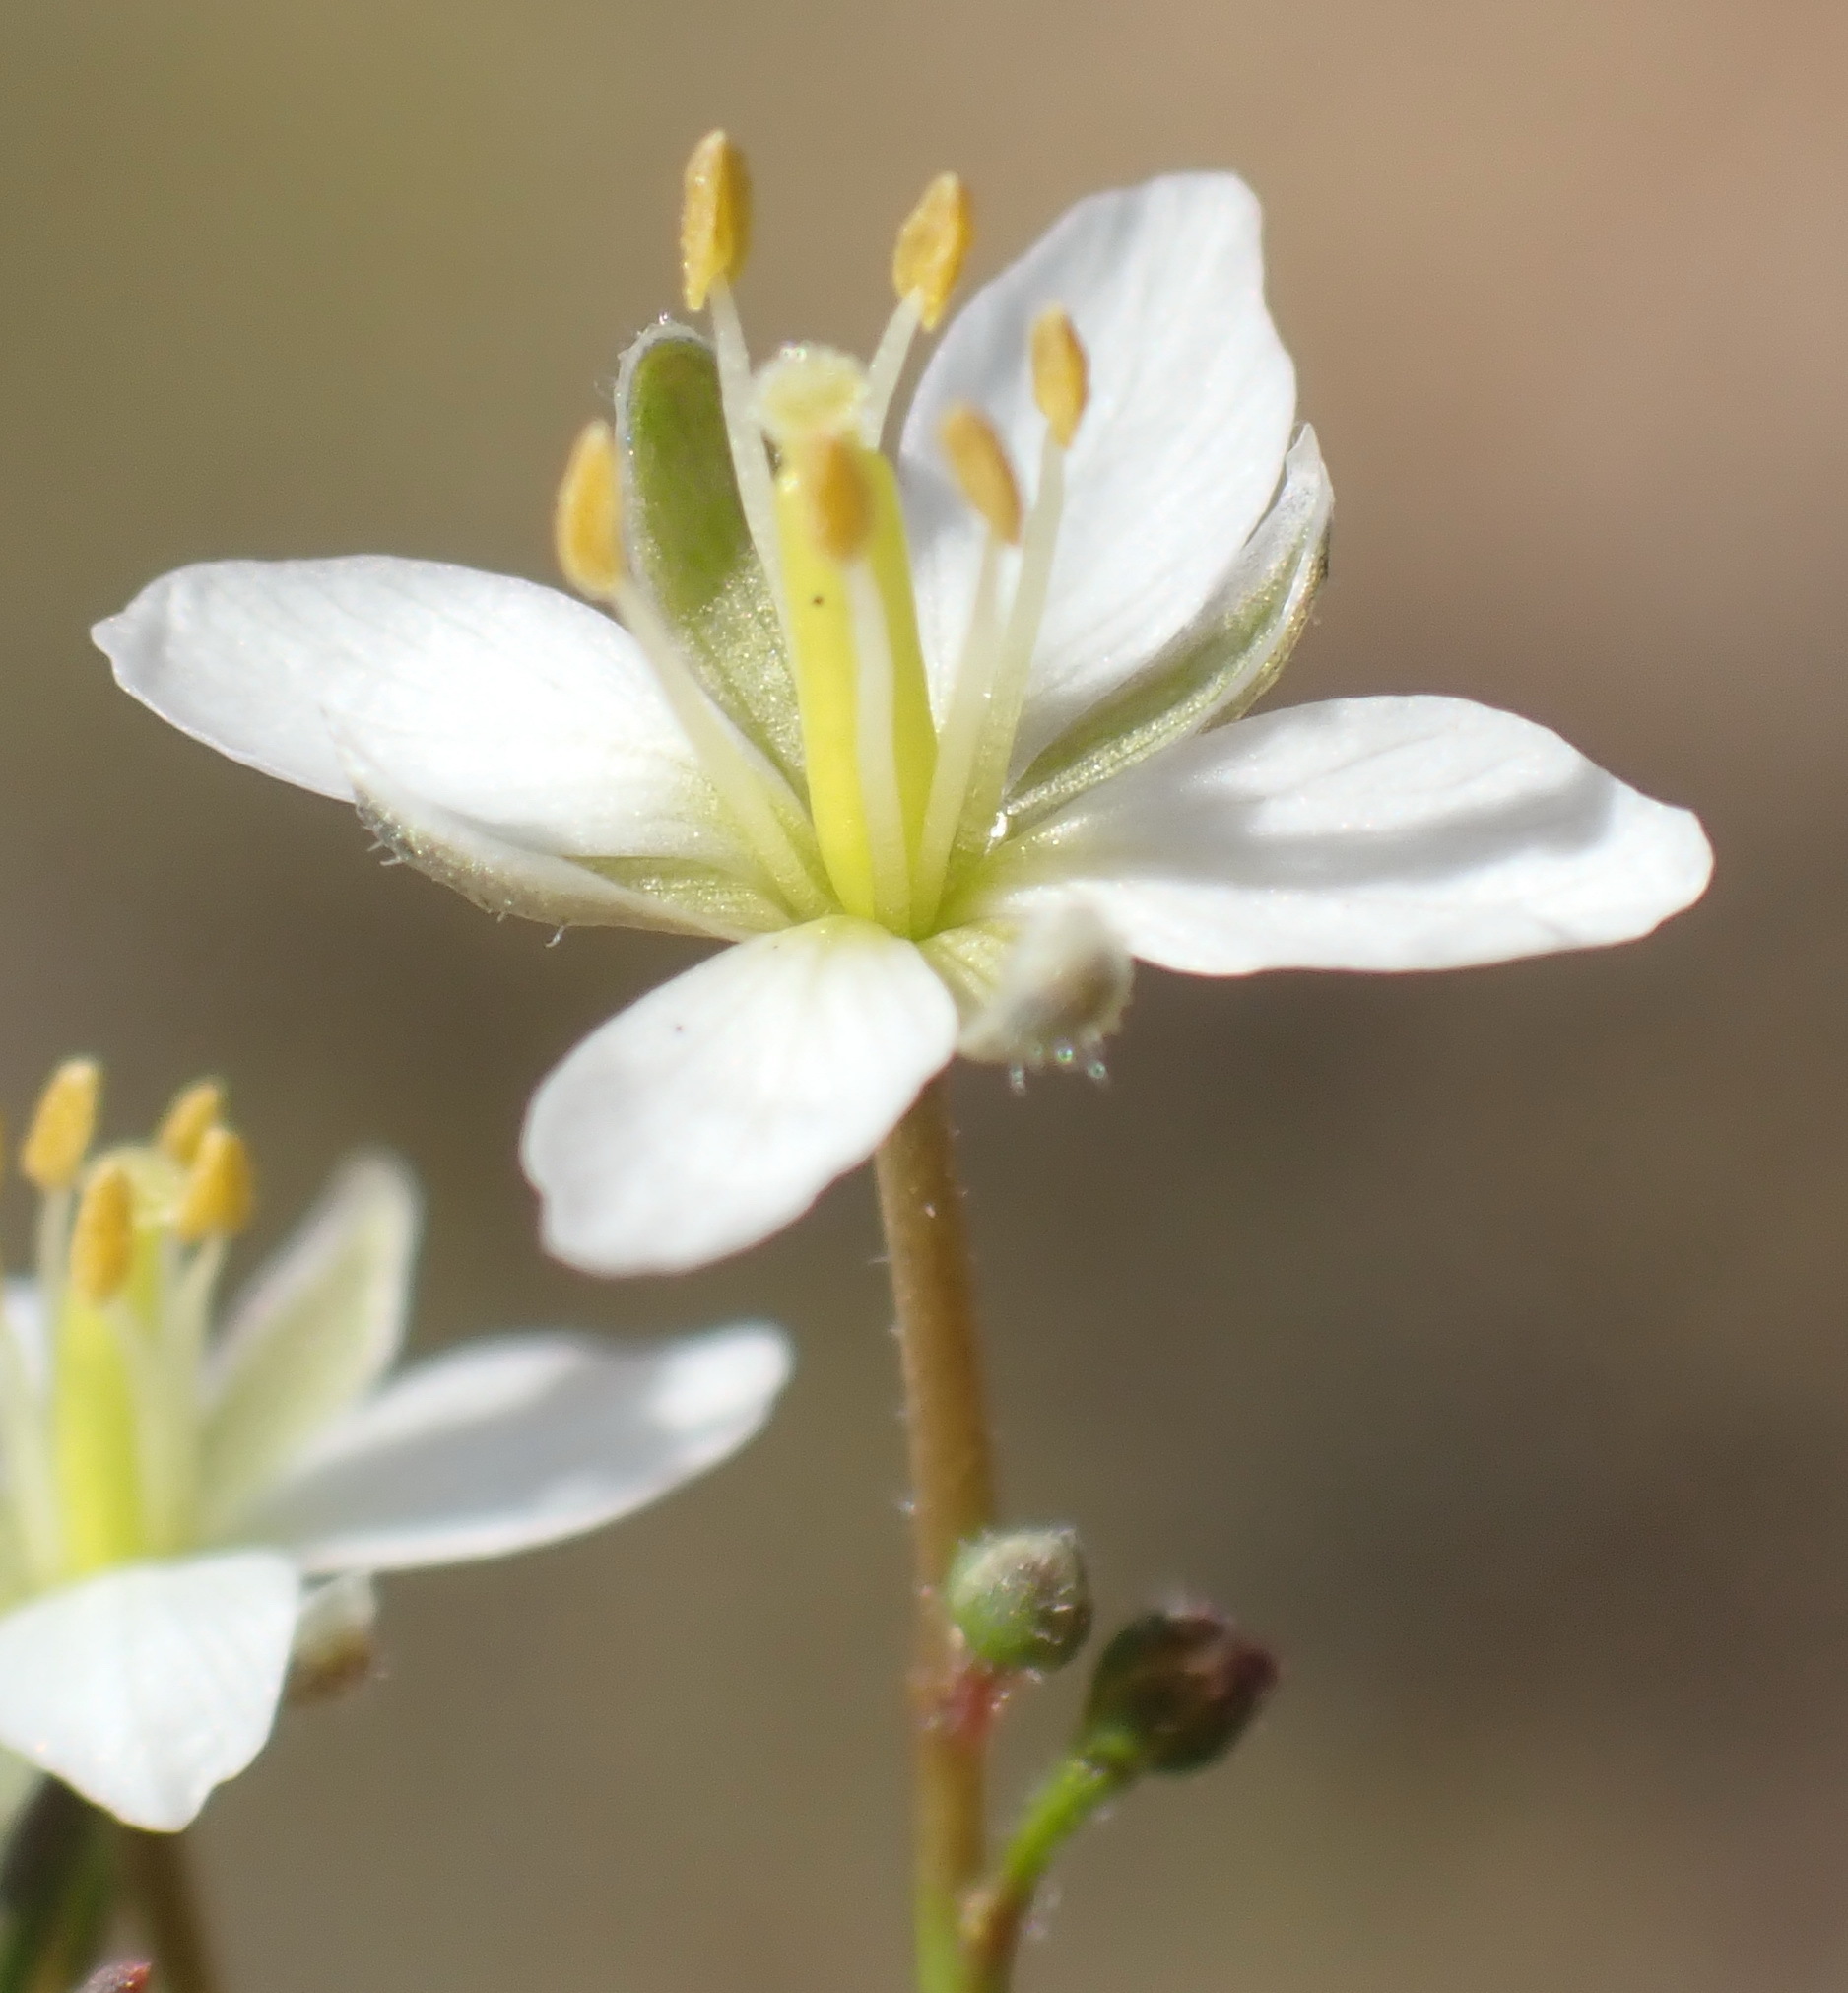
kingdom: Plantae
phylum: Tracheophyta
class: Magnoliopsida
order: Brassicales
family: Brassicaceae
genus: Heliophila
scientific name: Heliophila crithmifolia
